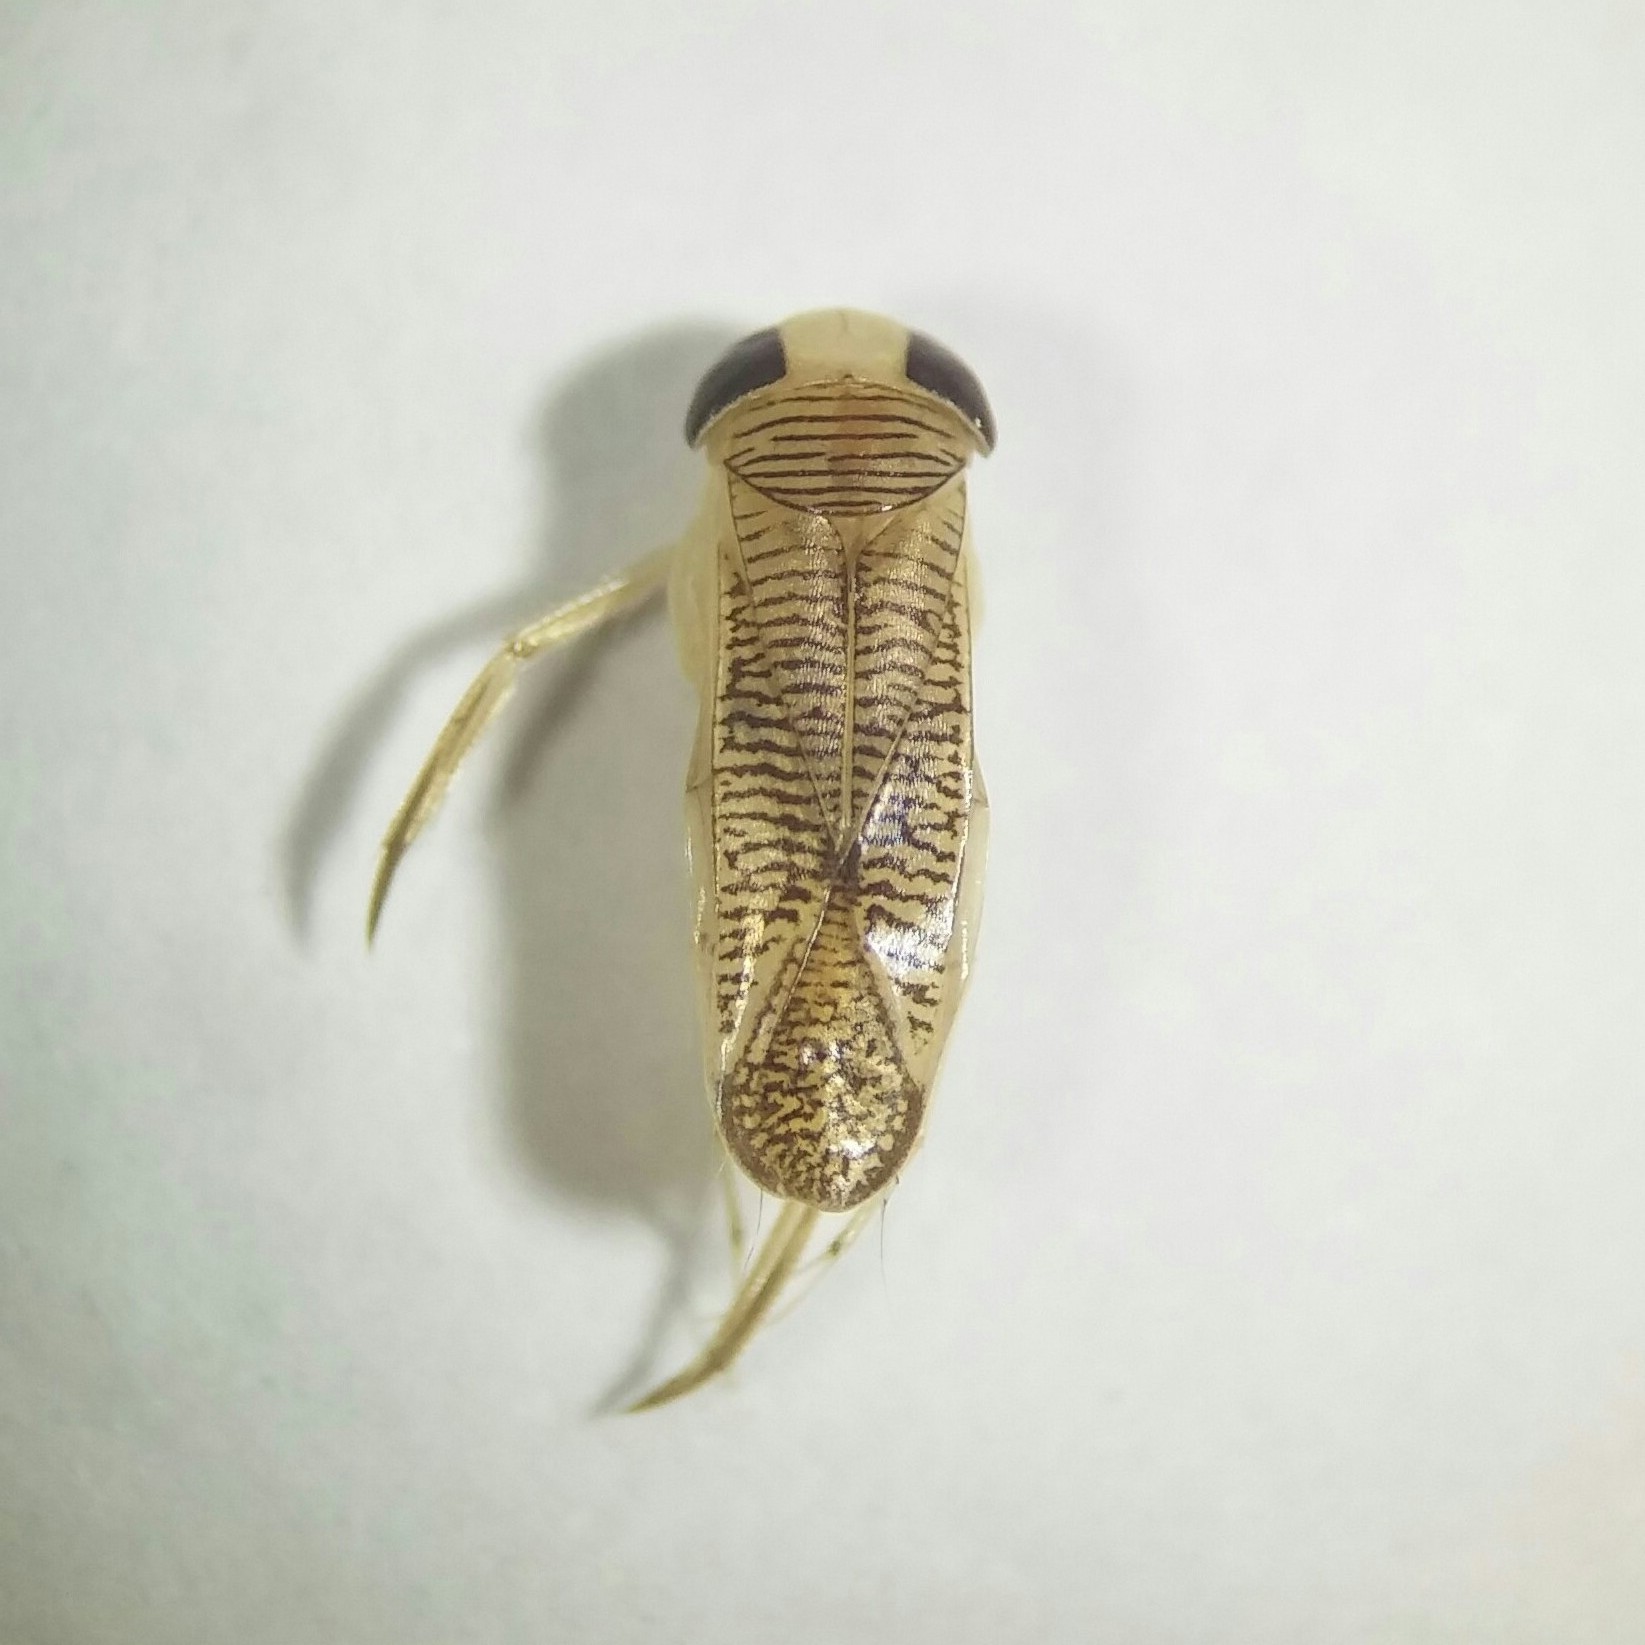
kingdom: Animalia
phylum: Arthropoda
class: Insecta
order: Hemiptera
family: Corixidae
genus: Sigara
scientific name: Sigara nigrolineata
